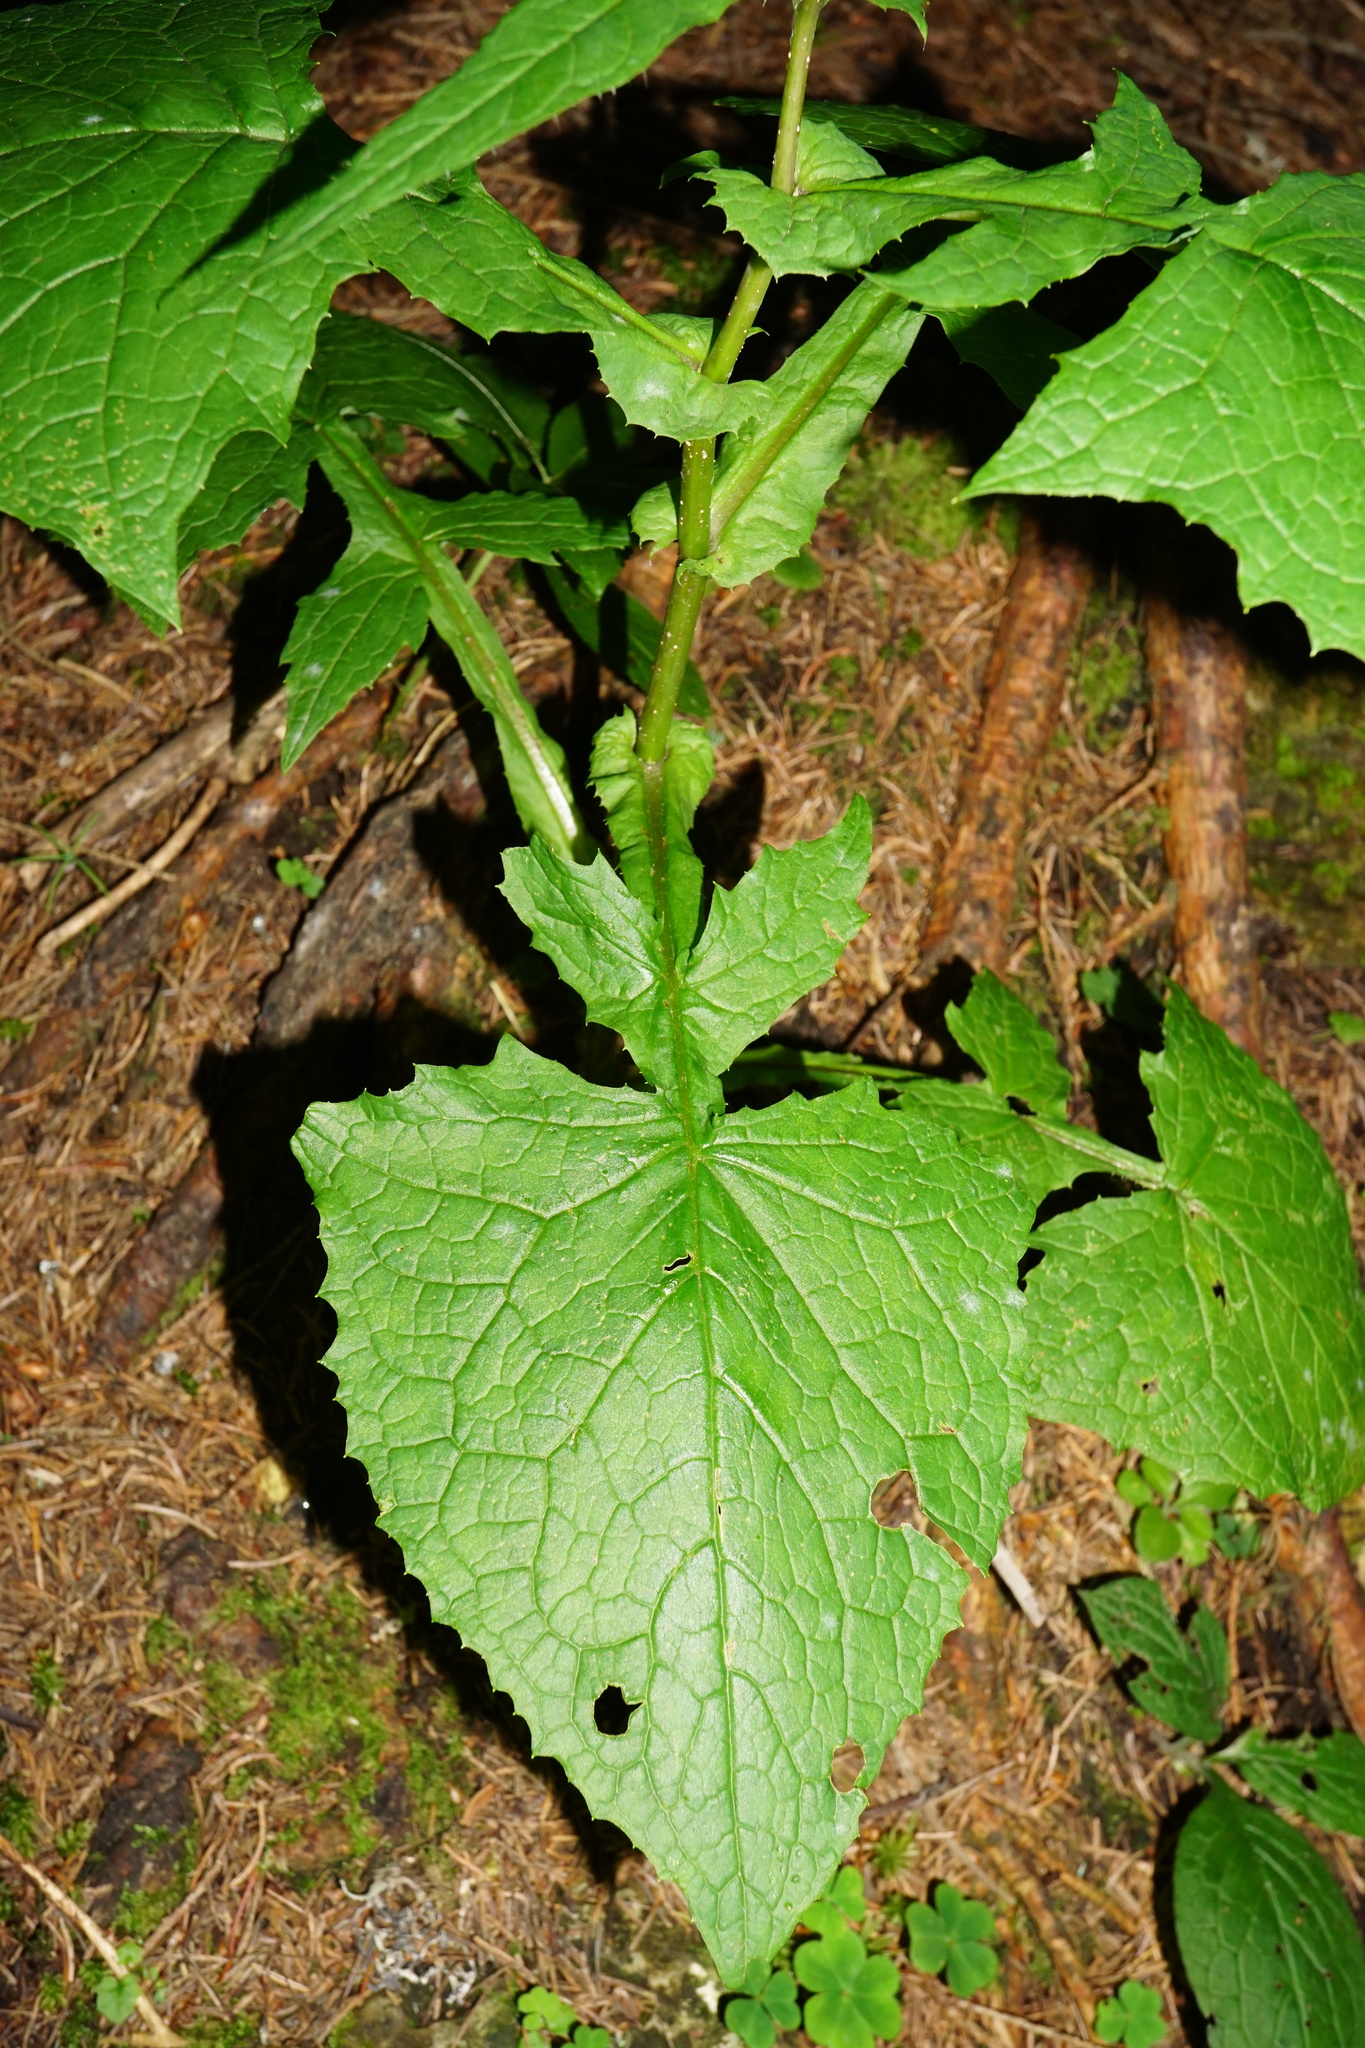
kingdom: Plantae
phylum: Tracheophyta
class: Magnoliopsida
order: Asterales
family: Asteraceae
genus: Cicerbita
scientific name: Cicerbita alpina
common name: Alpine blue-sow-thistle
